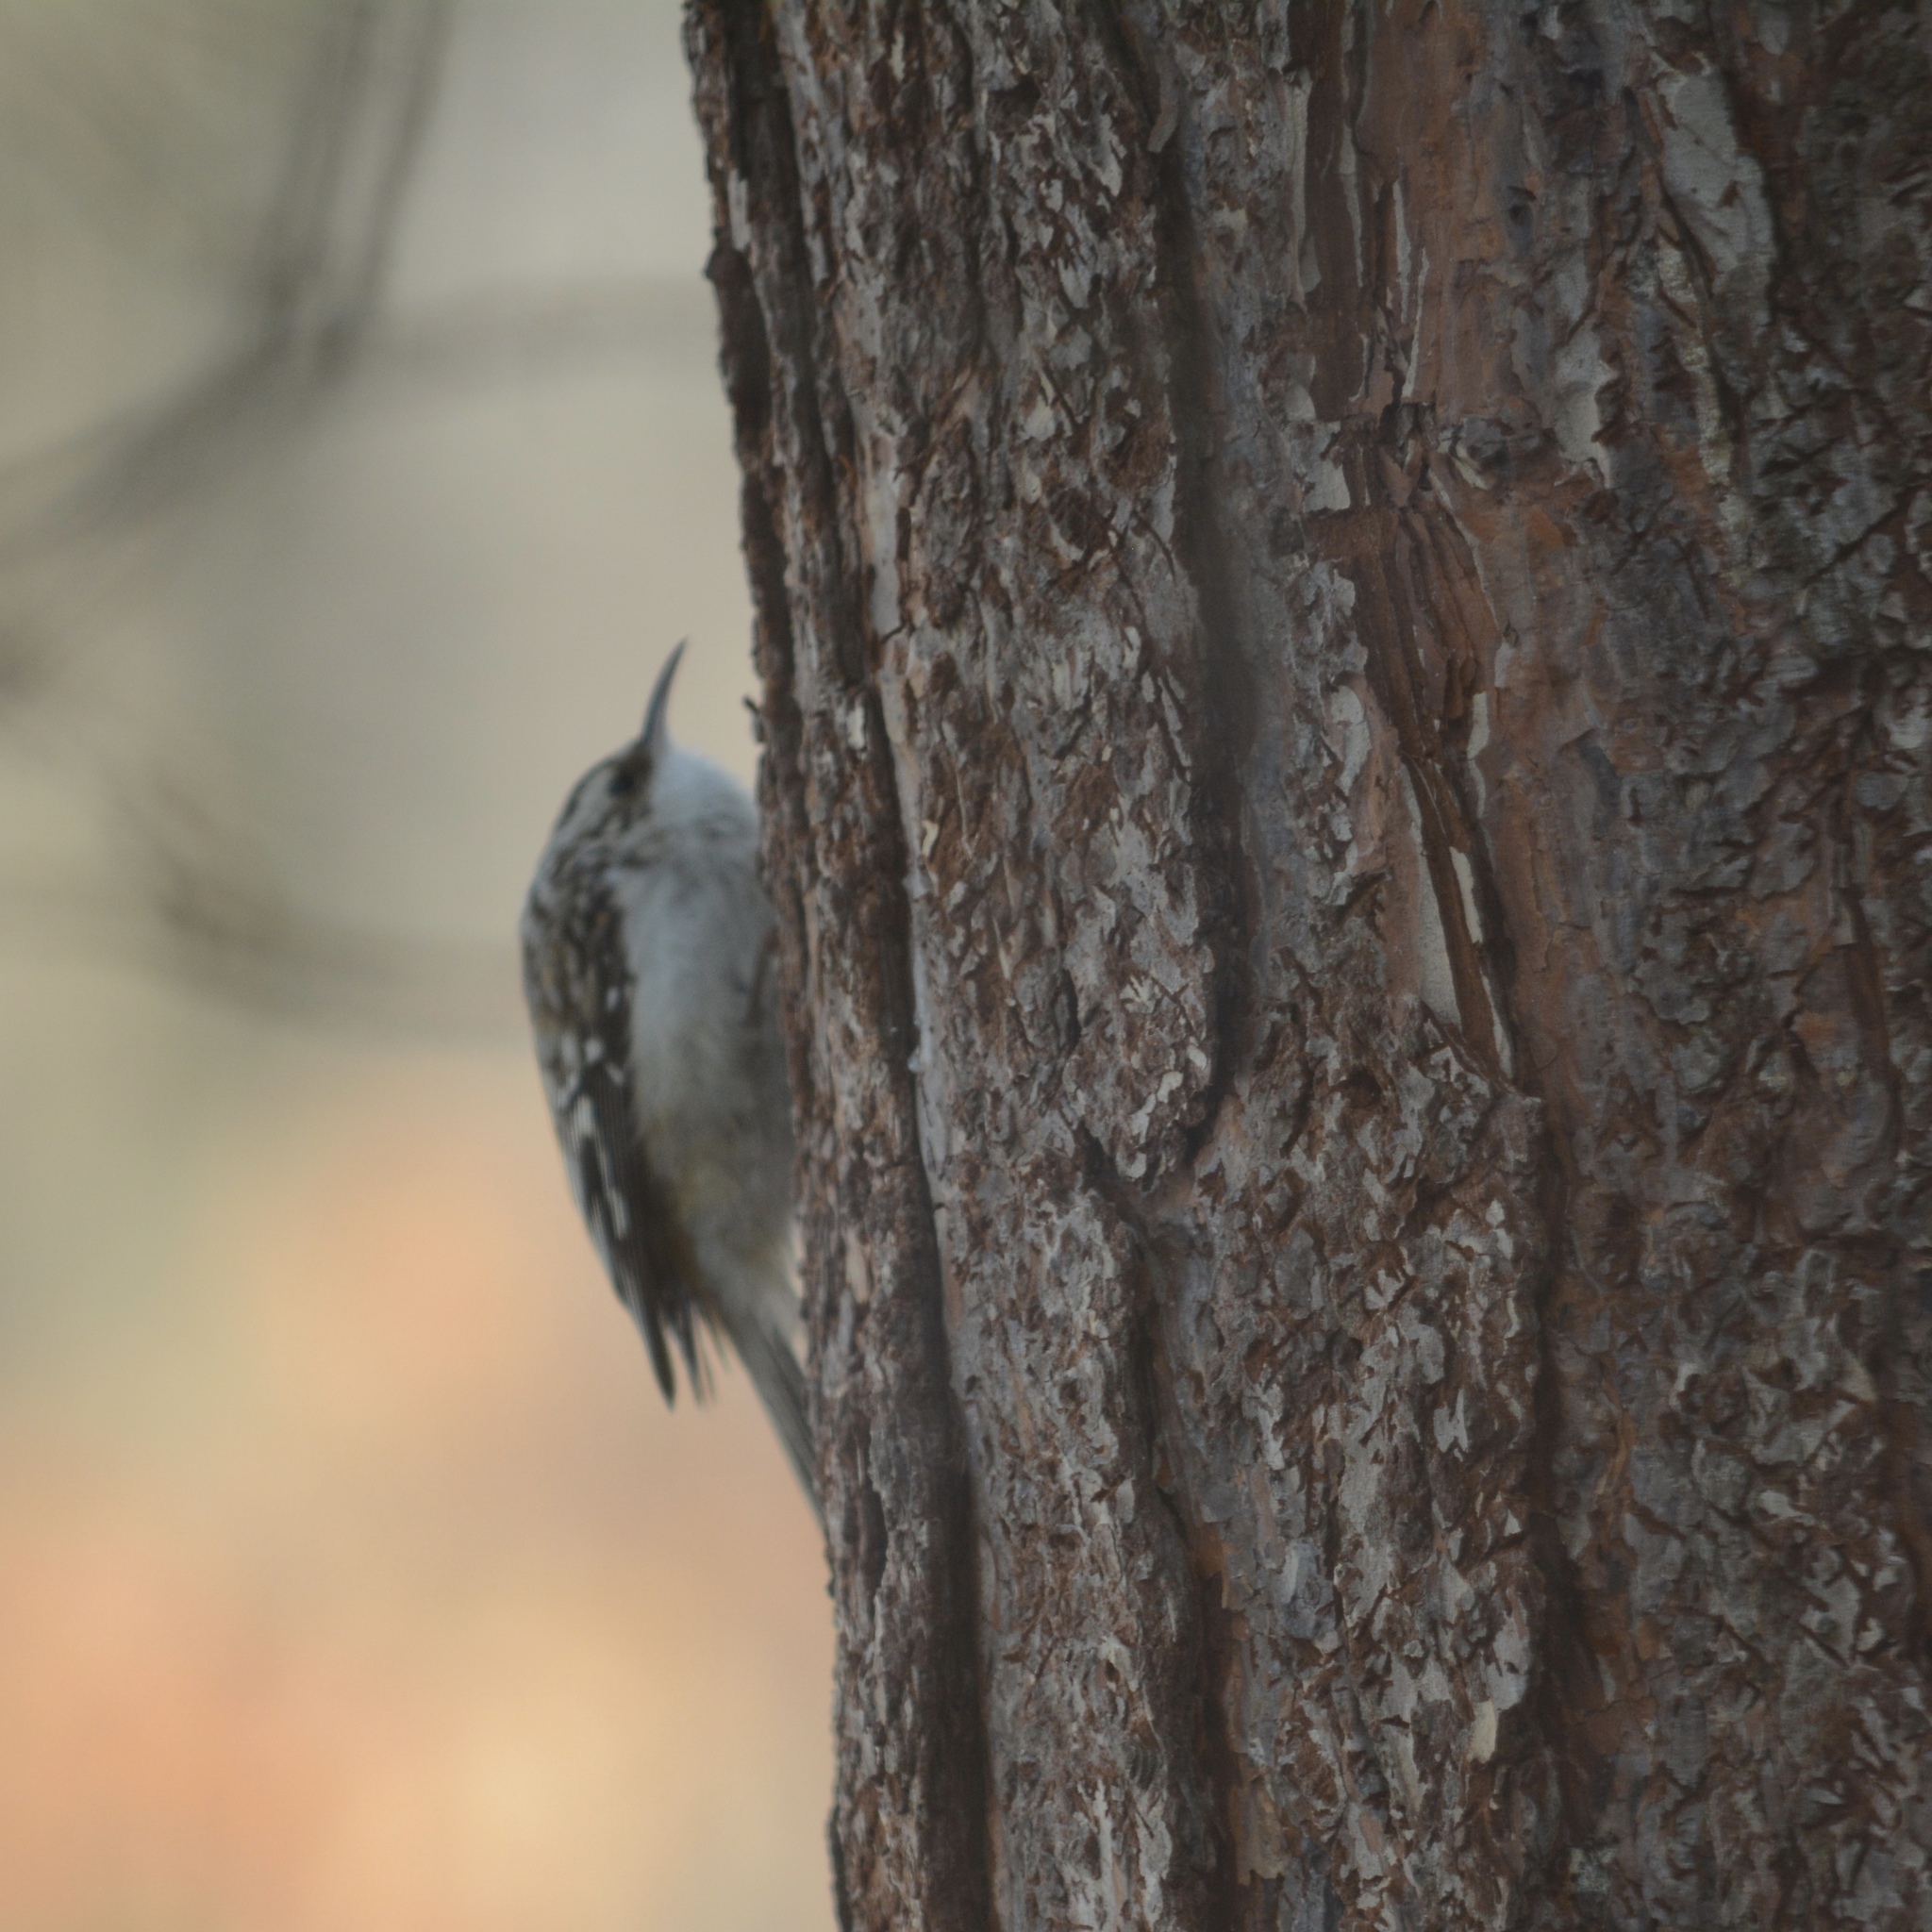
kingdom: Animalia
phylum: Chordata
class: Aves
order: Passeriformes
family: Certhiidae
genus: Certhia
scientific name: Certhia americana
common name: Brown creeper
